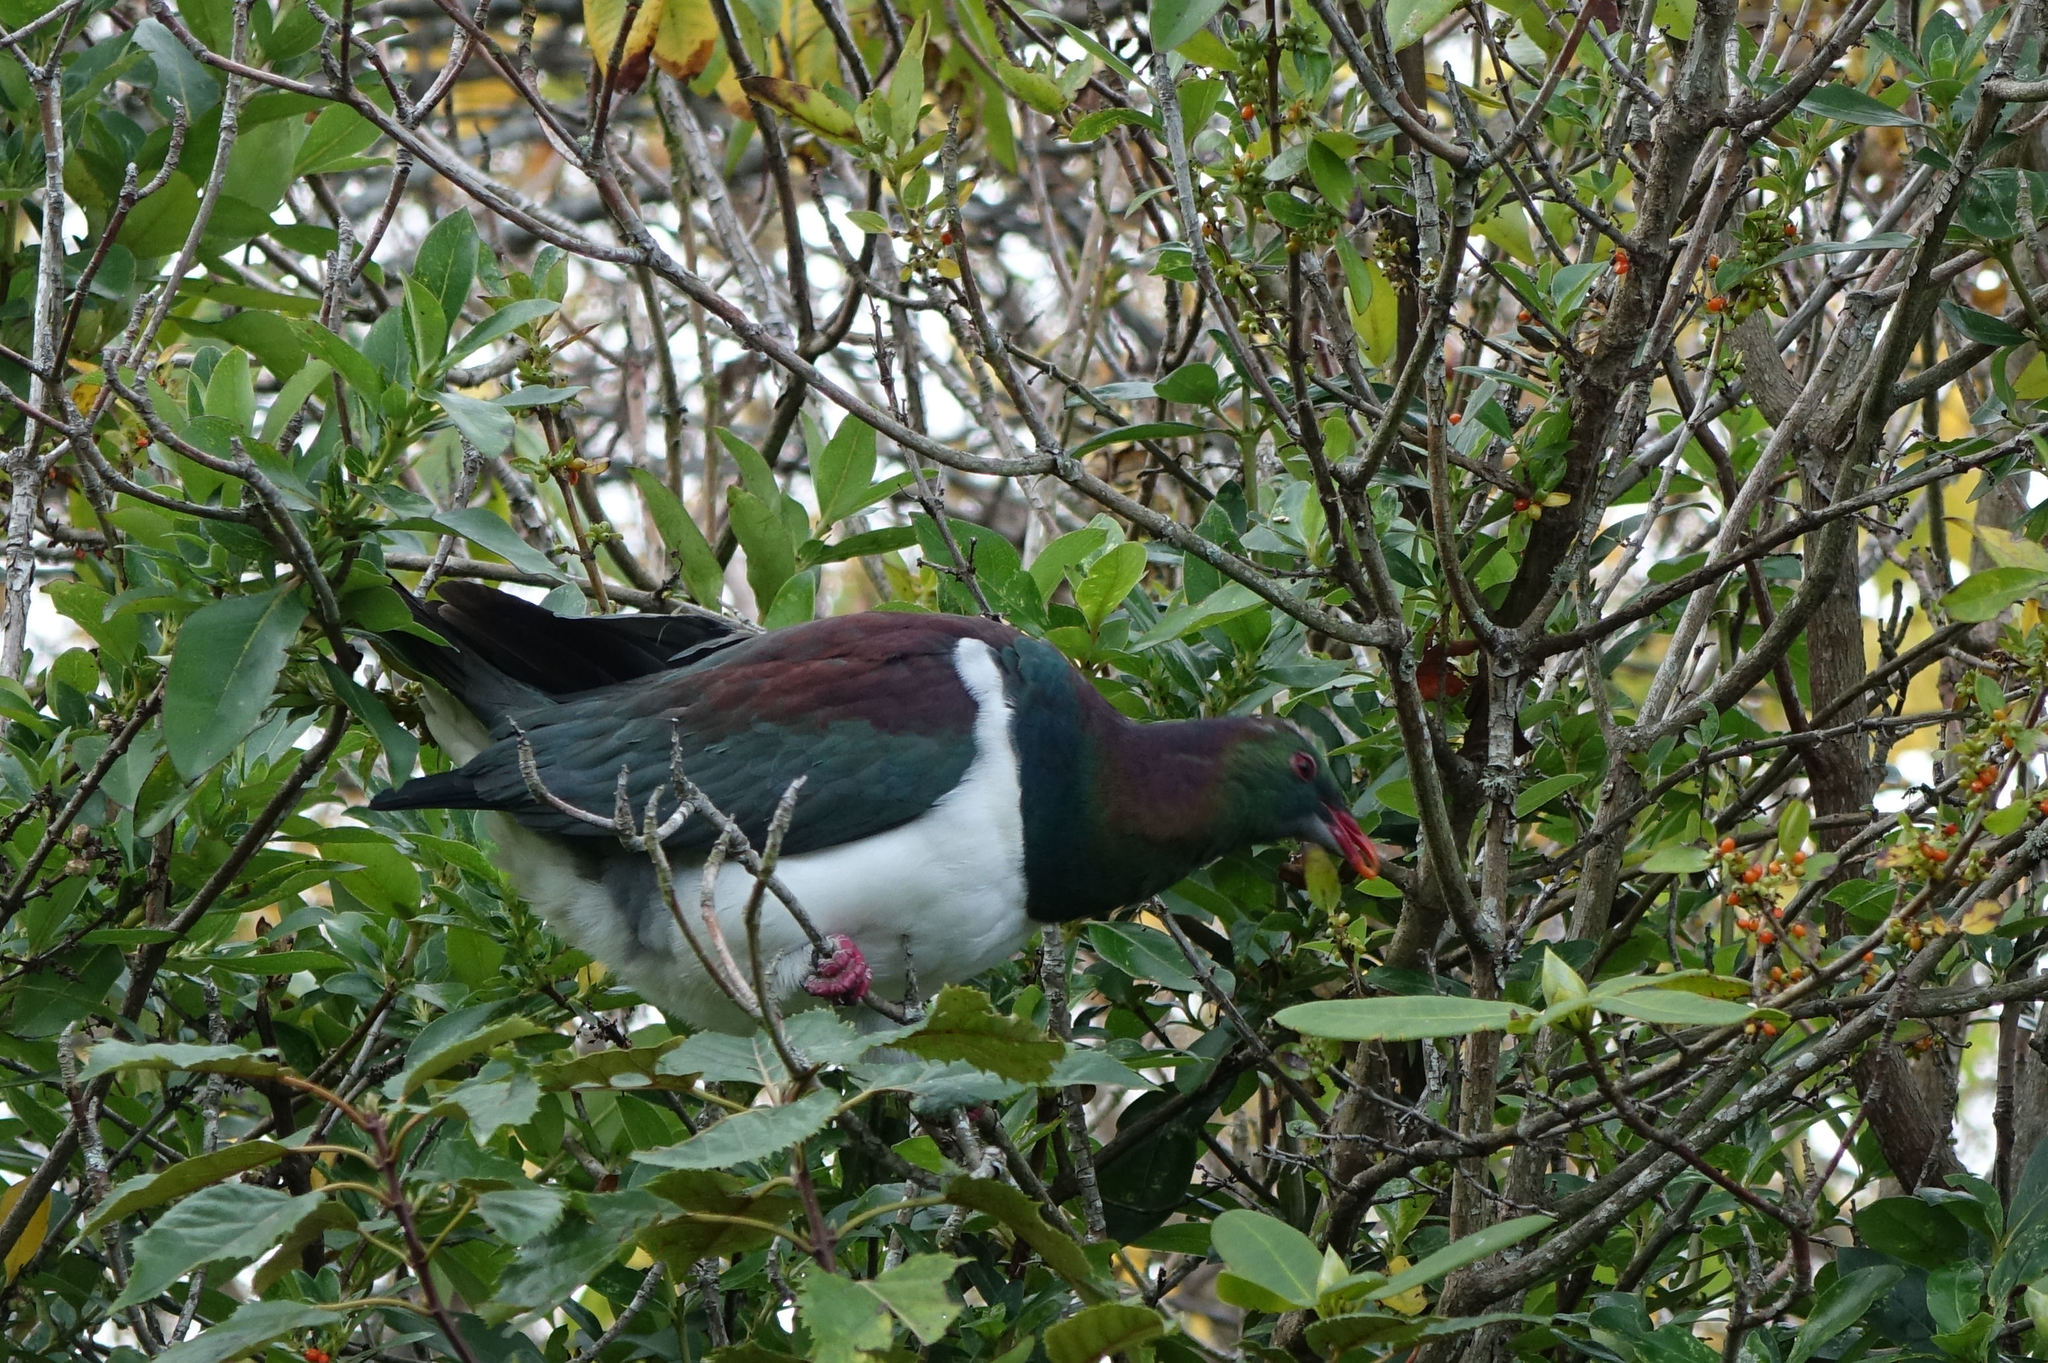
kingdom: Animalia
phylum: Chordata
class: Aves
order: Columbiformes
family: Columbidae
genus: Hemiphaga
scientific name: Hemiphaga novaeseelandiae
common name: New zealand pigeon
